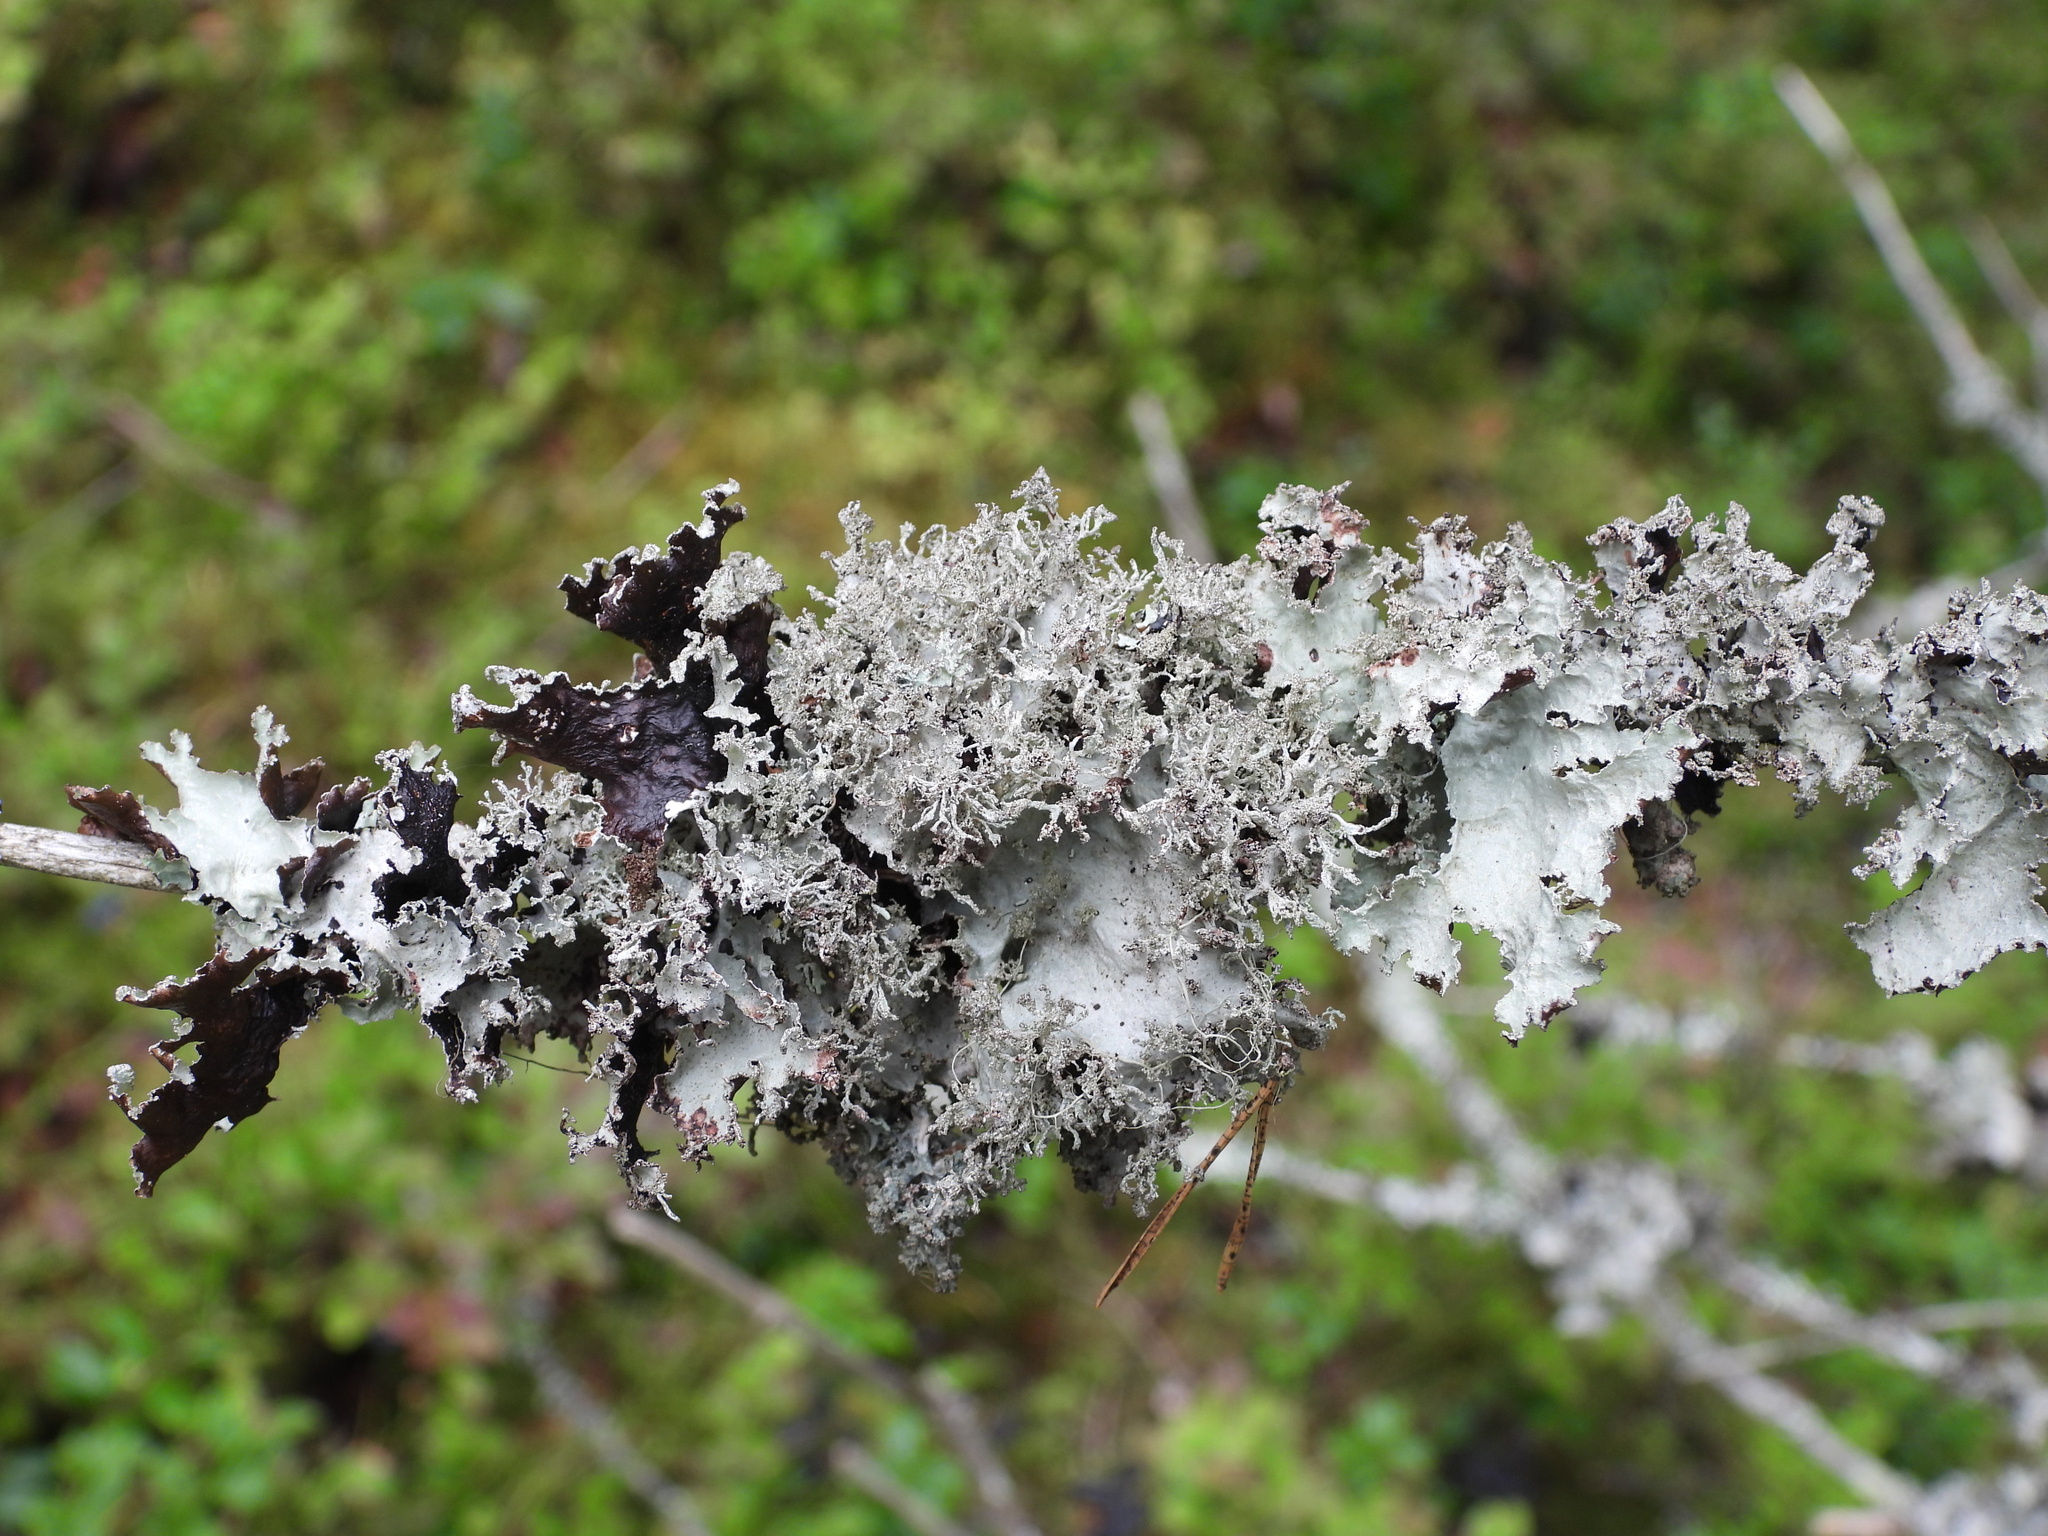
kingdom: Fungi
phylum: Ascomycota
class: Lecanoromycetes
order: Lecanorales
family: Parmeliaceae
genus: Platismatia
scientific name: Platismatia glauca
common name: Varied rag lichen
